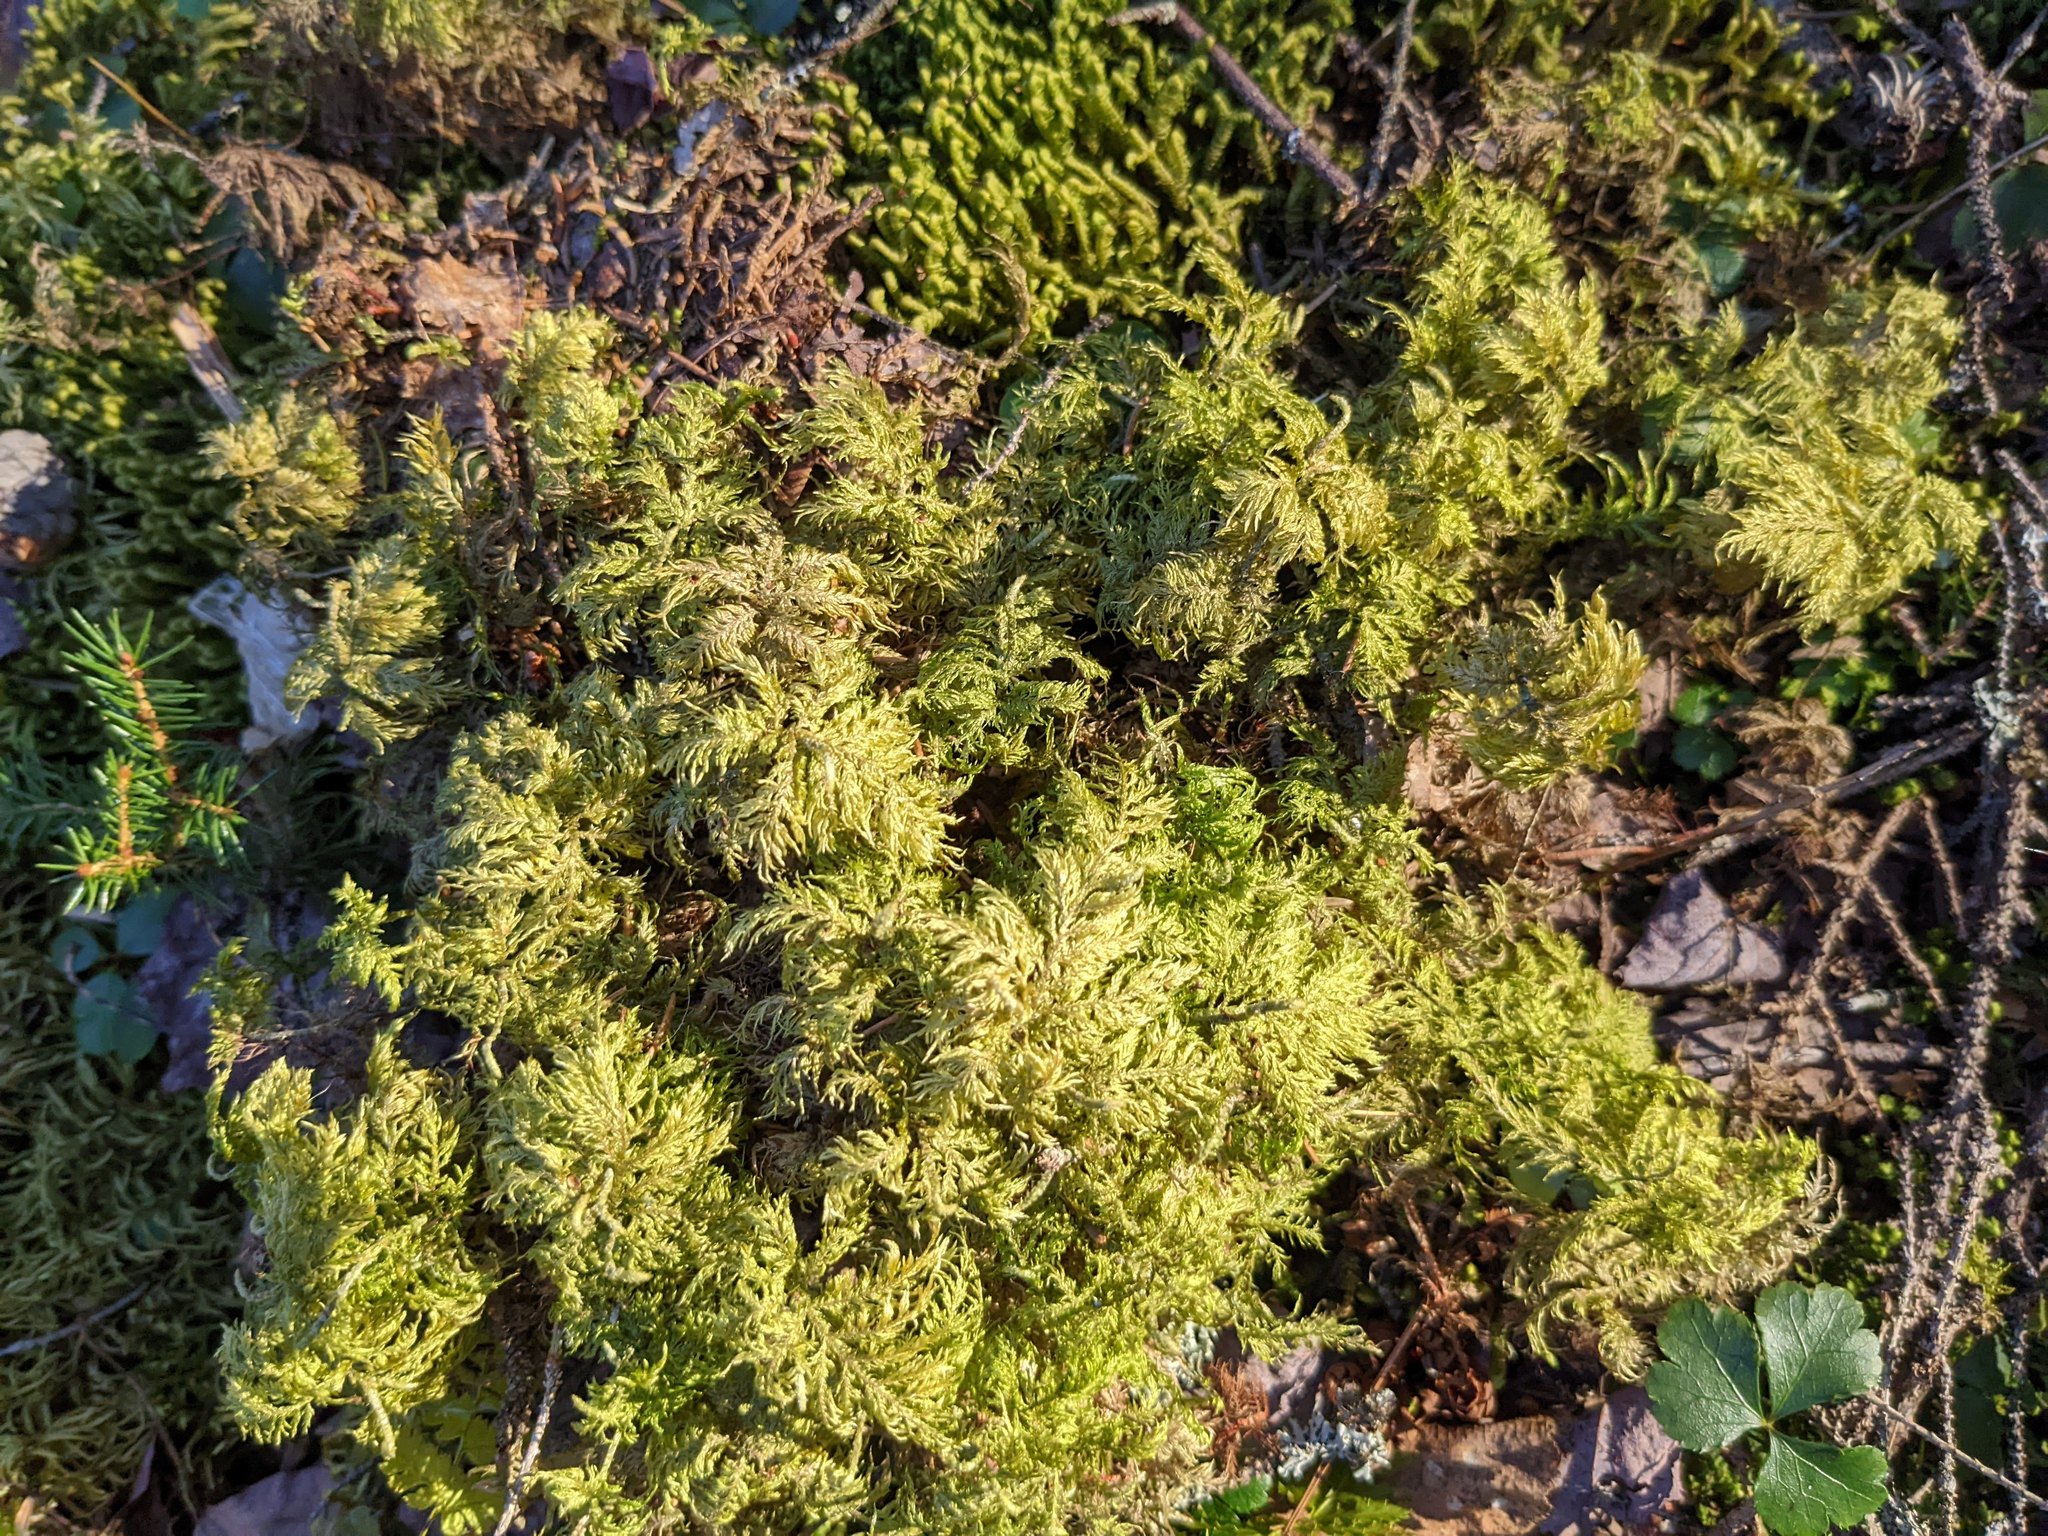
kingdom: Plantae
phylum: Bryophyta
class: Bryopsida
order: Hypnales
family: Hylocomiaceae
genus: Hylocomium
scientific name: Hylocomium splendens
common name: Stairstep moss
